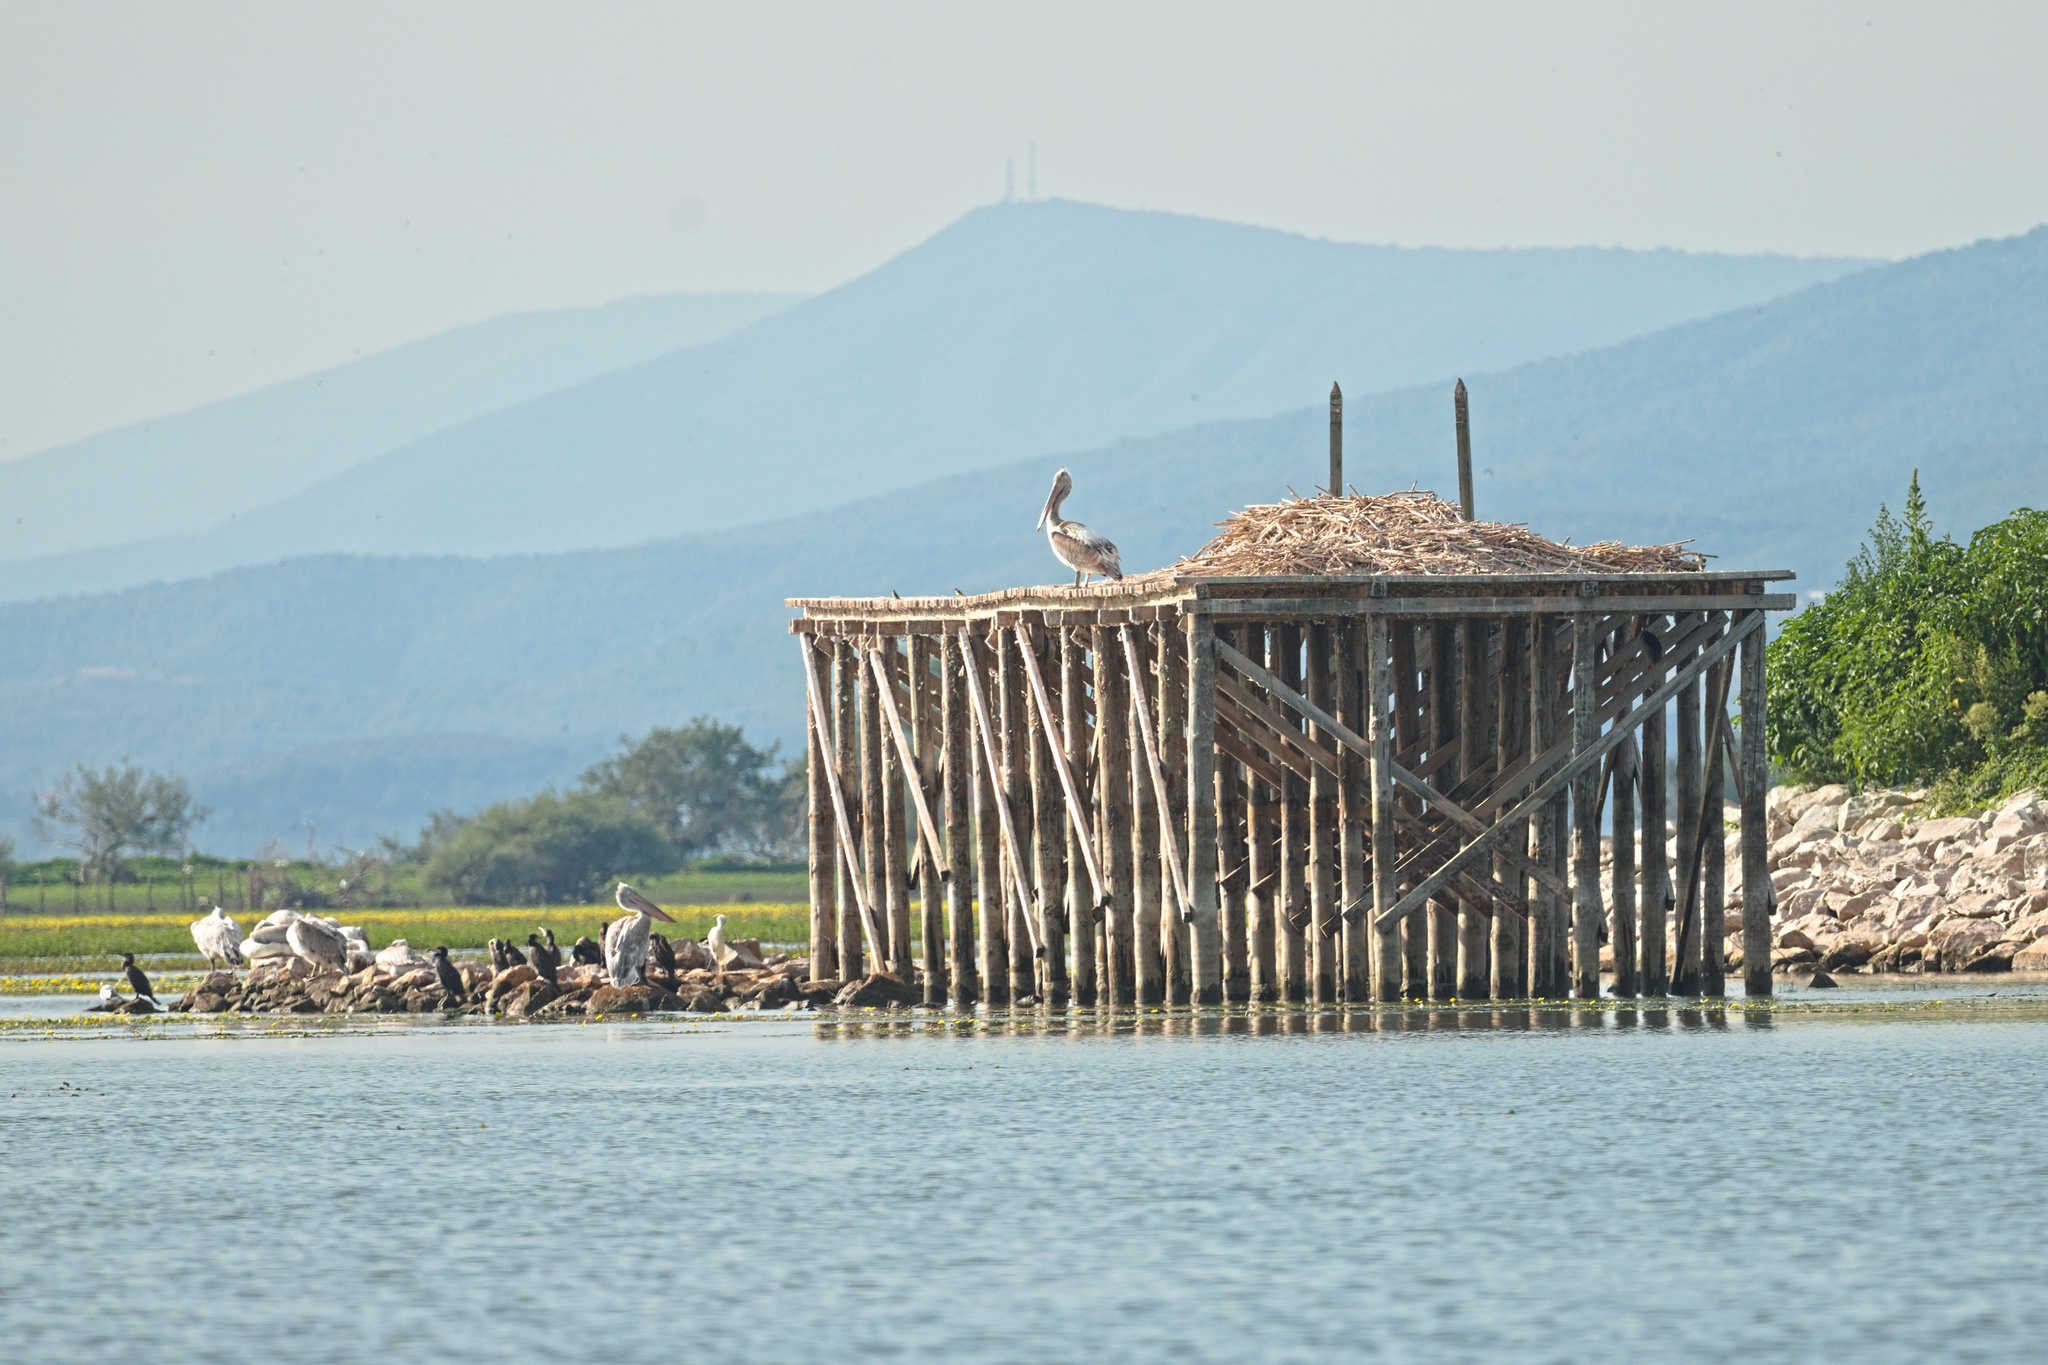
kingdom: Animalia
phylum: Chordata
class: Aves
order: Pelecaniformes
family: Pelecanidae
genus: Pelecanus
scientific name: Pelecanus crispus
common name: Dalmatian pelican
